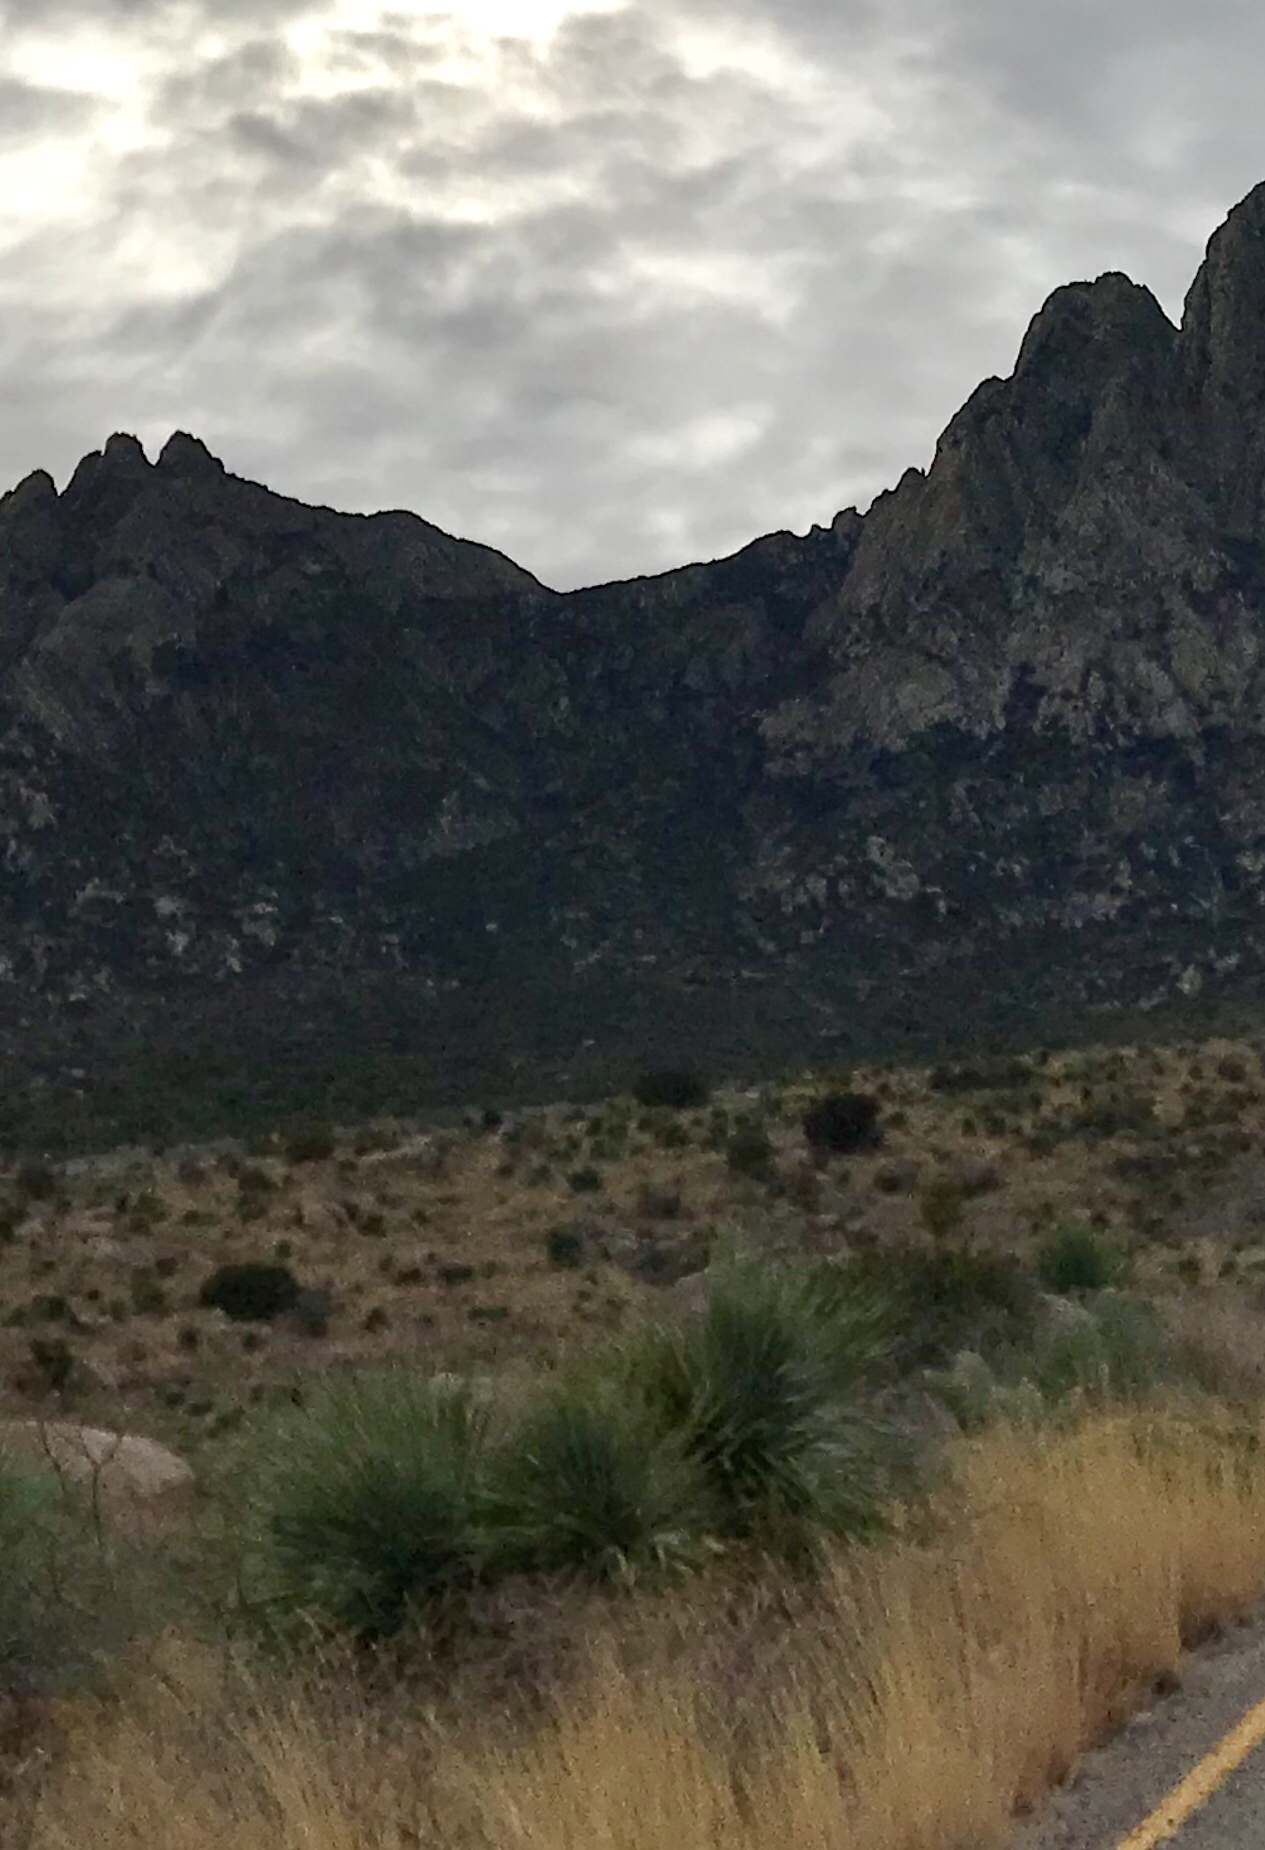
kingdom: Plantae
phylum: Tracheophyta
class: Liliopsida
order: Asparagales
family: Asparagaceae
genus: Dasylirion
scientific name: Dasylirion wheeleri
